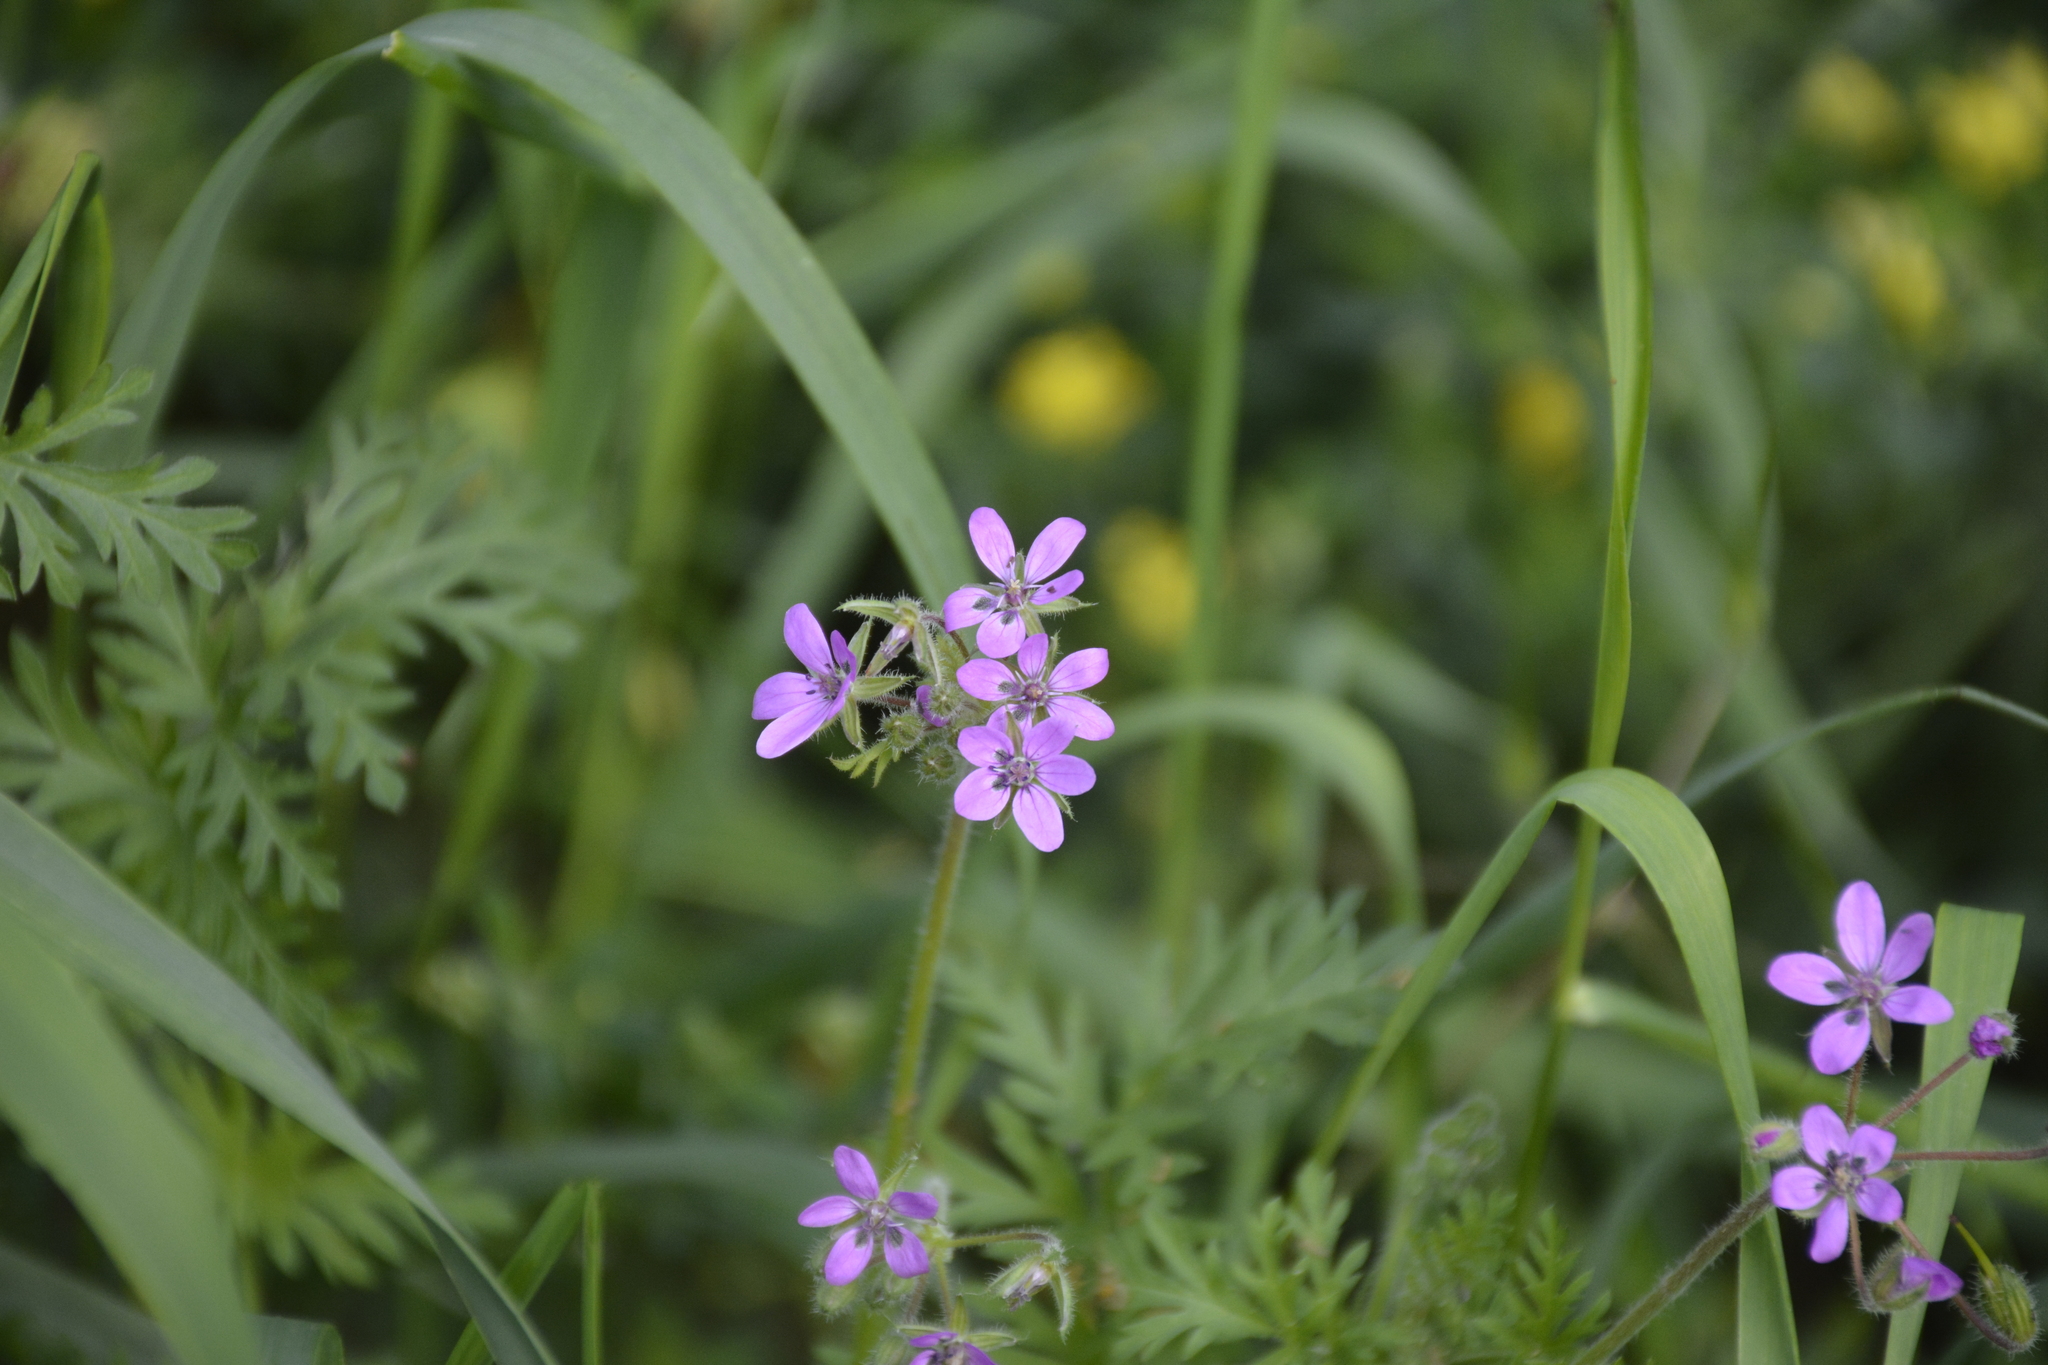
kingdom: Plantae
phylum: Tracheophyta
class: Magnoliopsida
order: Geraniales
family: Geraniaceae
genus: Erodium
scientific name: Erodium cicutarium
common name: Common stork's-bill
